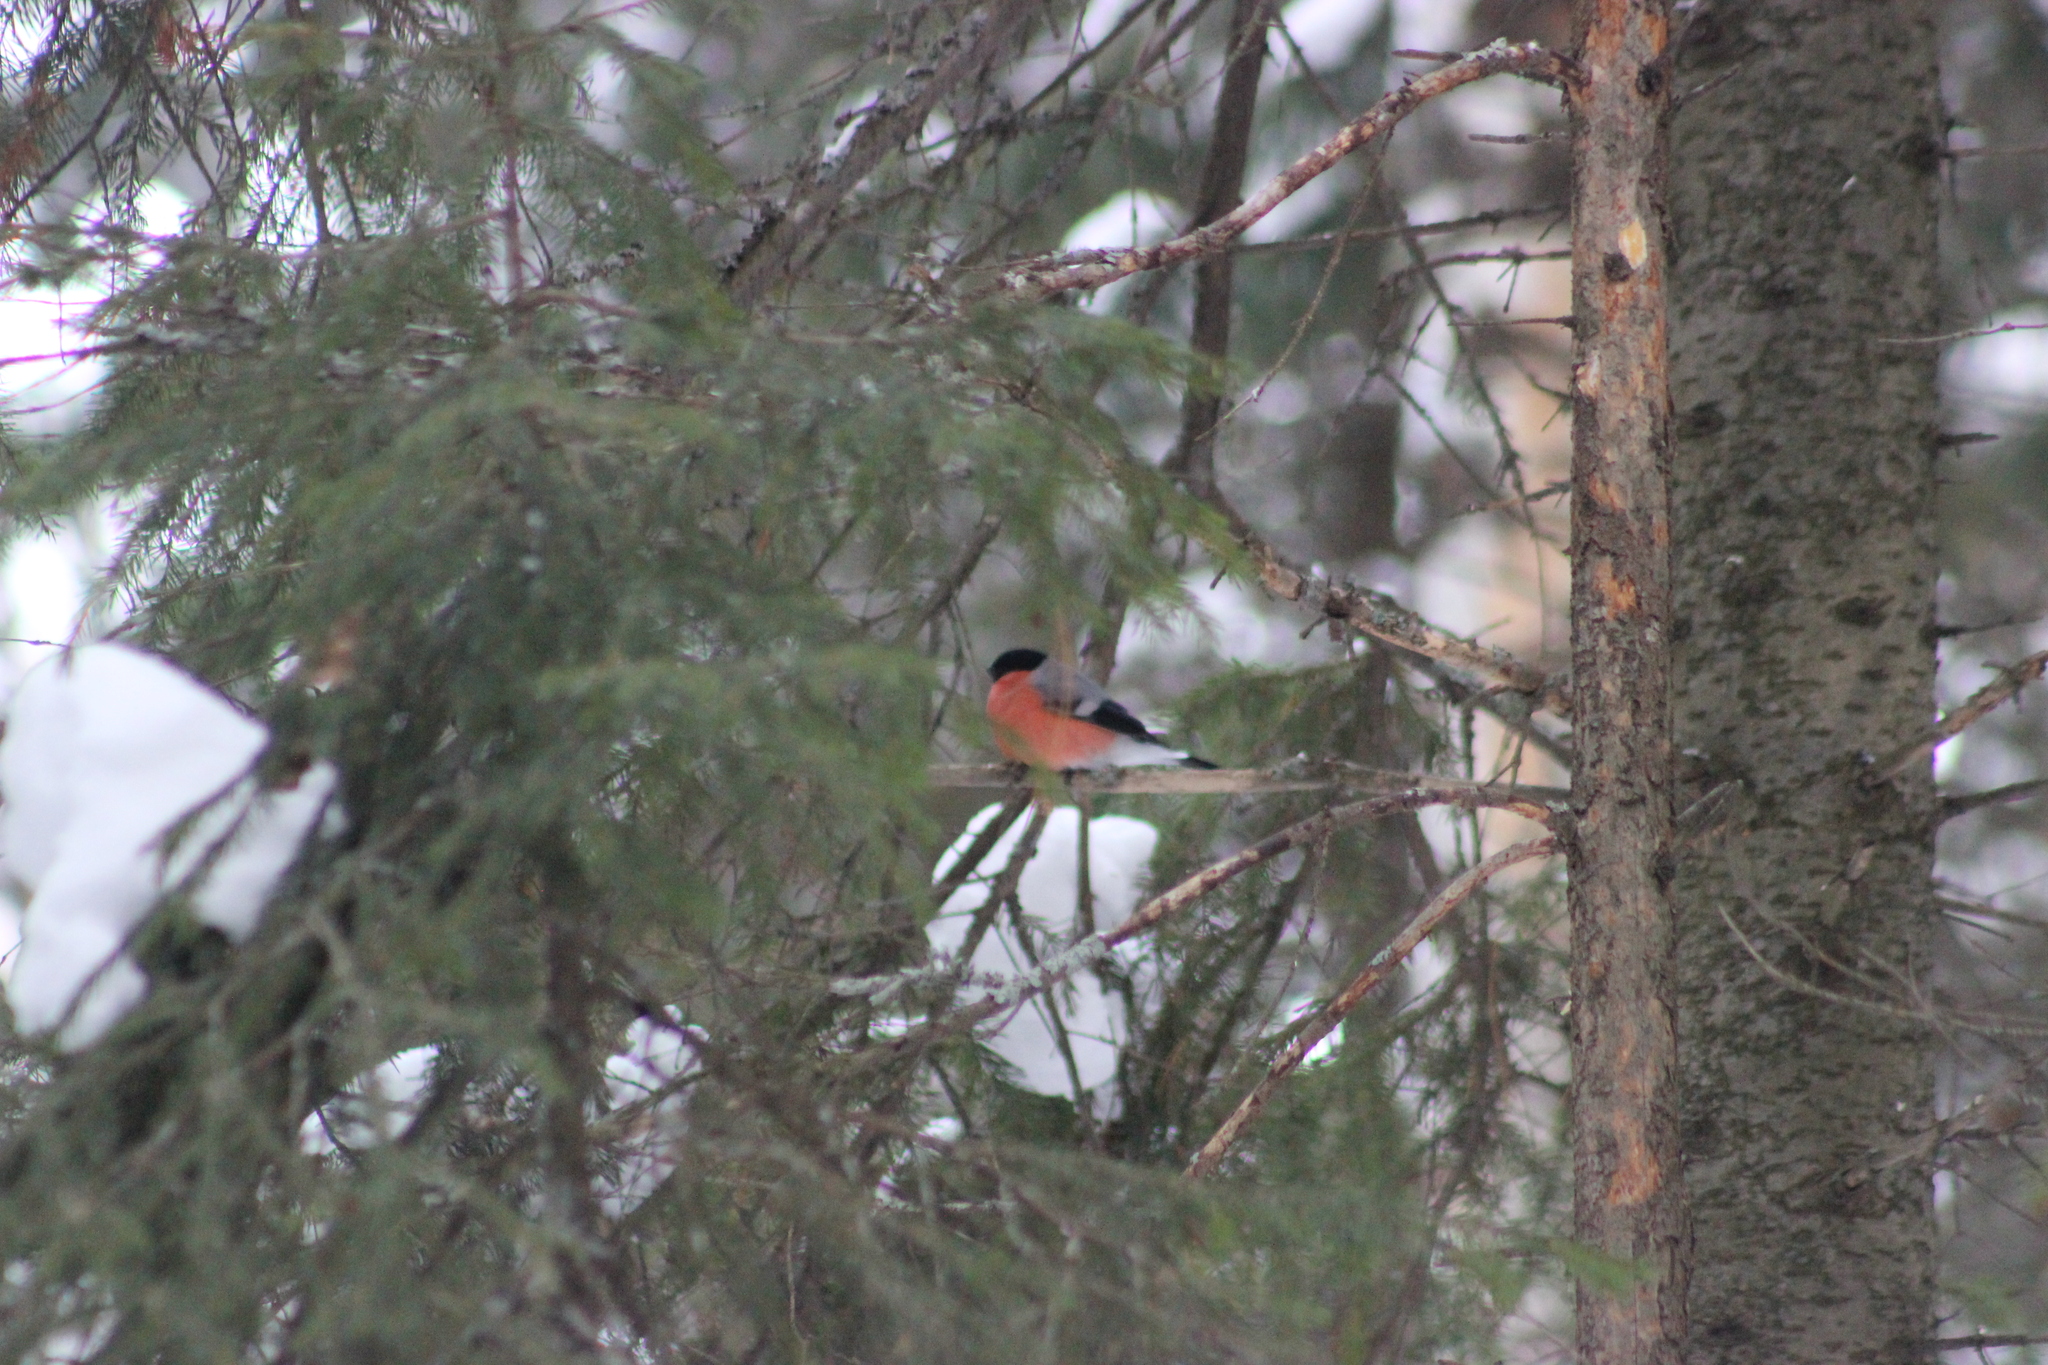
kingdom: Animalia
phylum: Chordata
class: Aves
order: Passeriformes
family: Fringillidae
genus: Pyrrhula
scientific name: Pyrrhula pyrrhula
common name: Eurasian bullfinch
